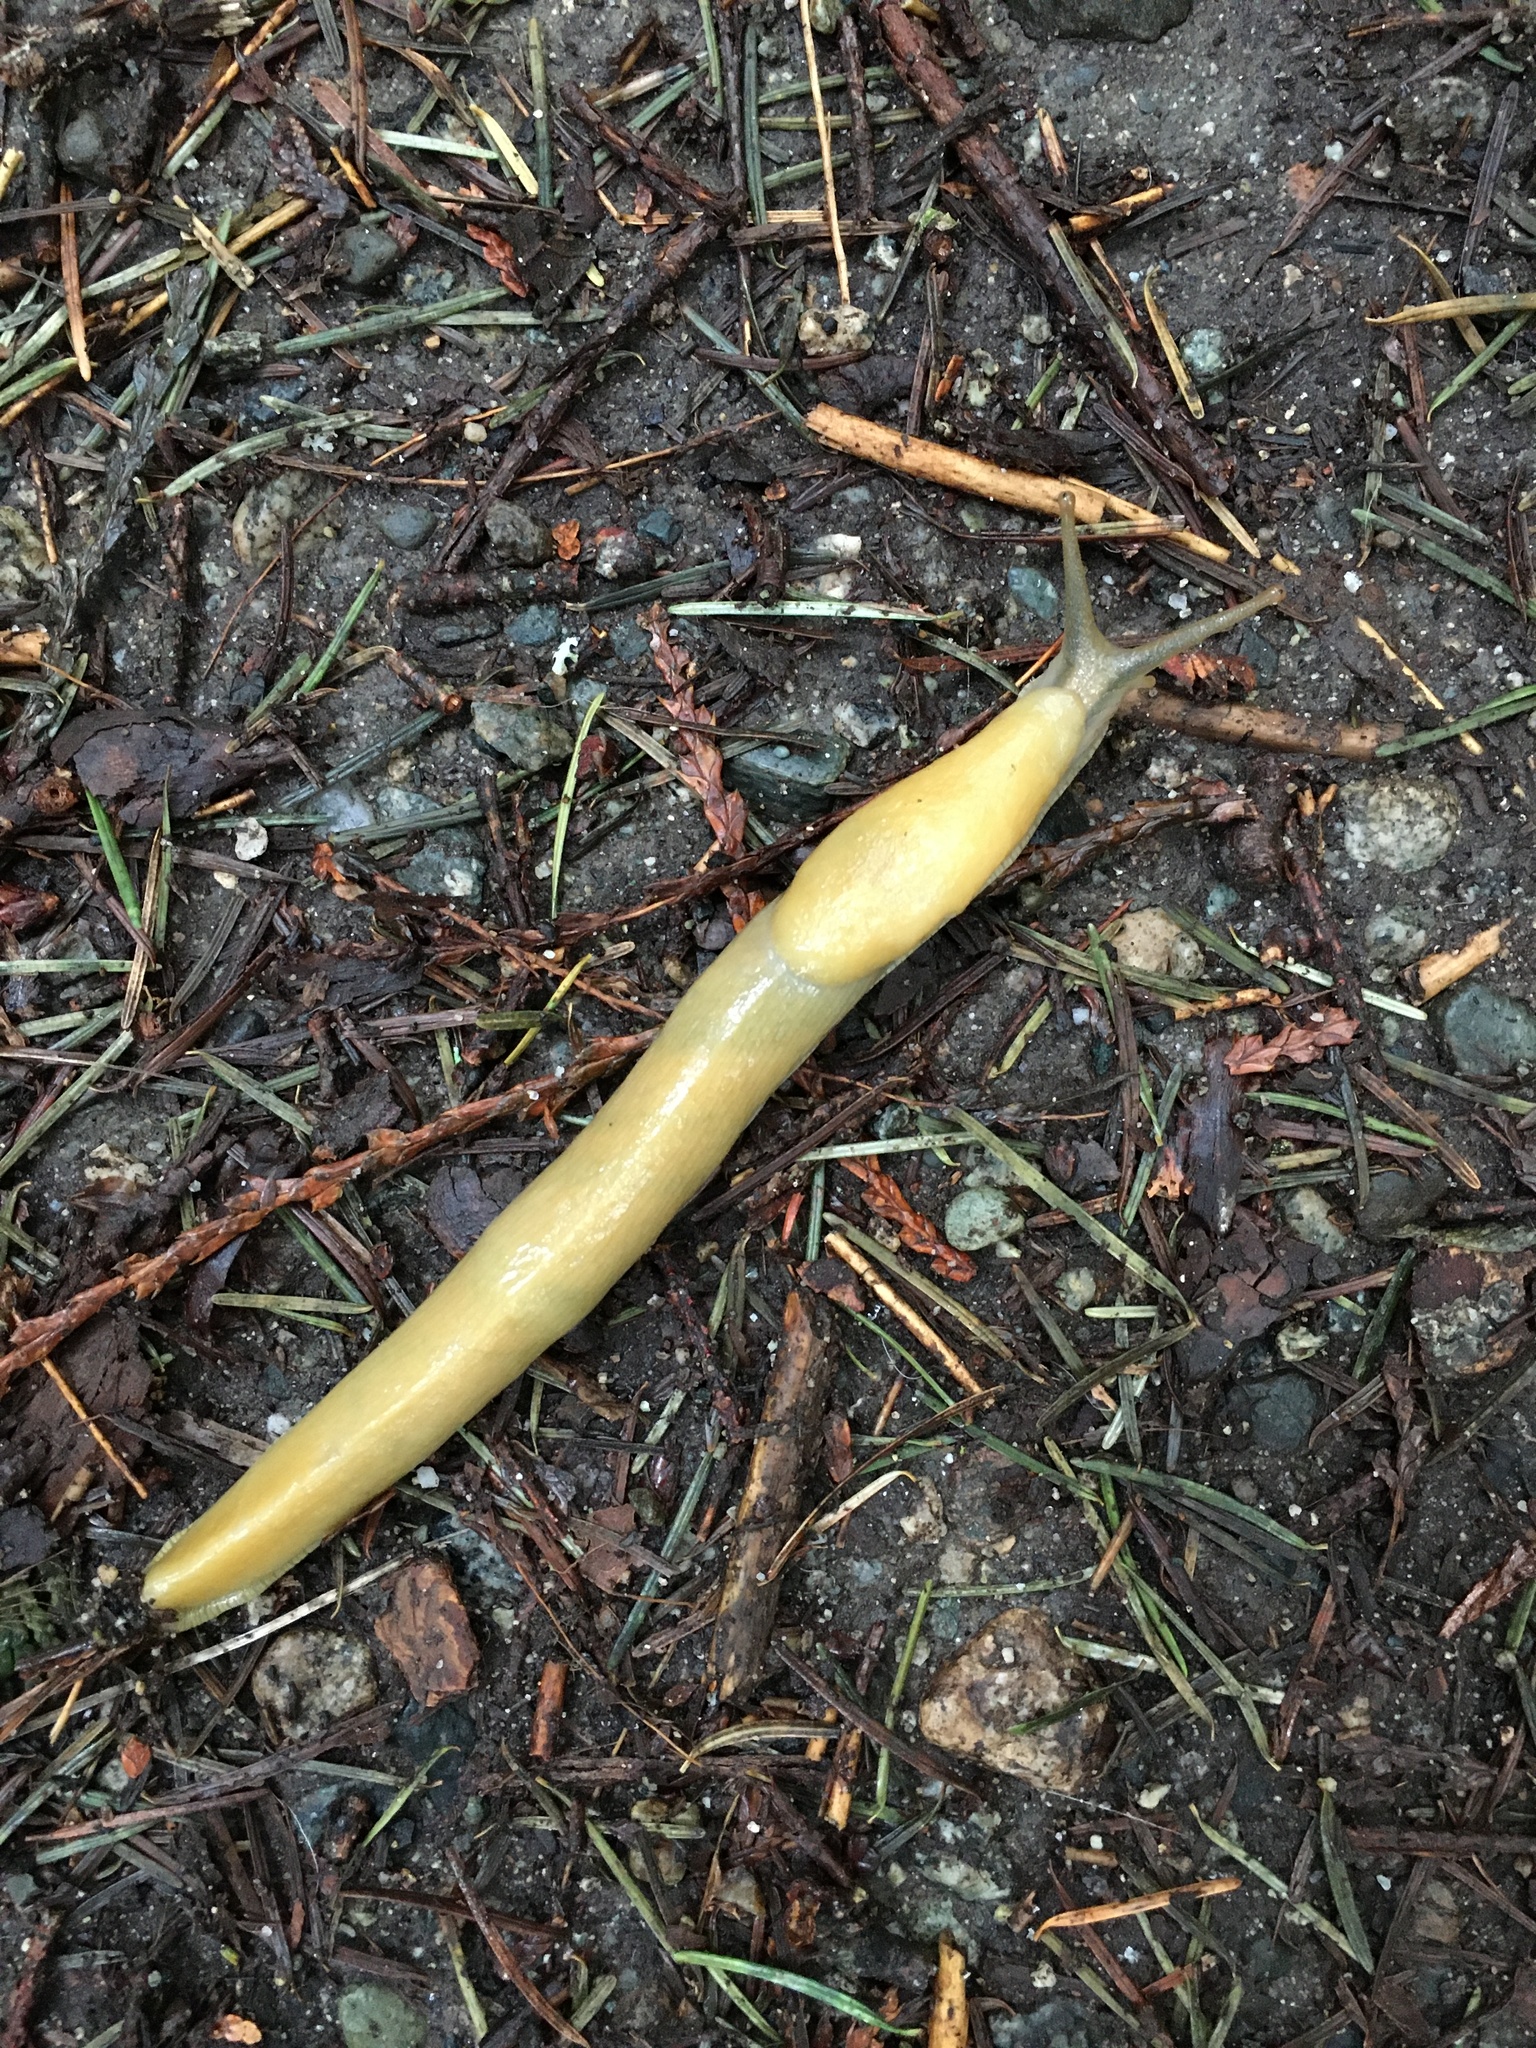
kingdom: Animalia
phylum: Mollusca
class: Gastropoda
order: Stylommatophora
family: Ariolimacidae
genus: Ariolimax
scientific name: Ariolimax columbianus
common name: Pacific banana slug
